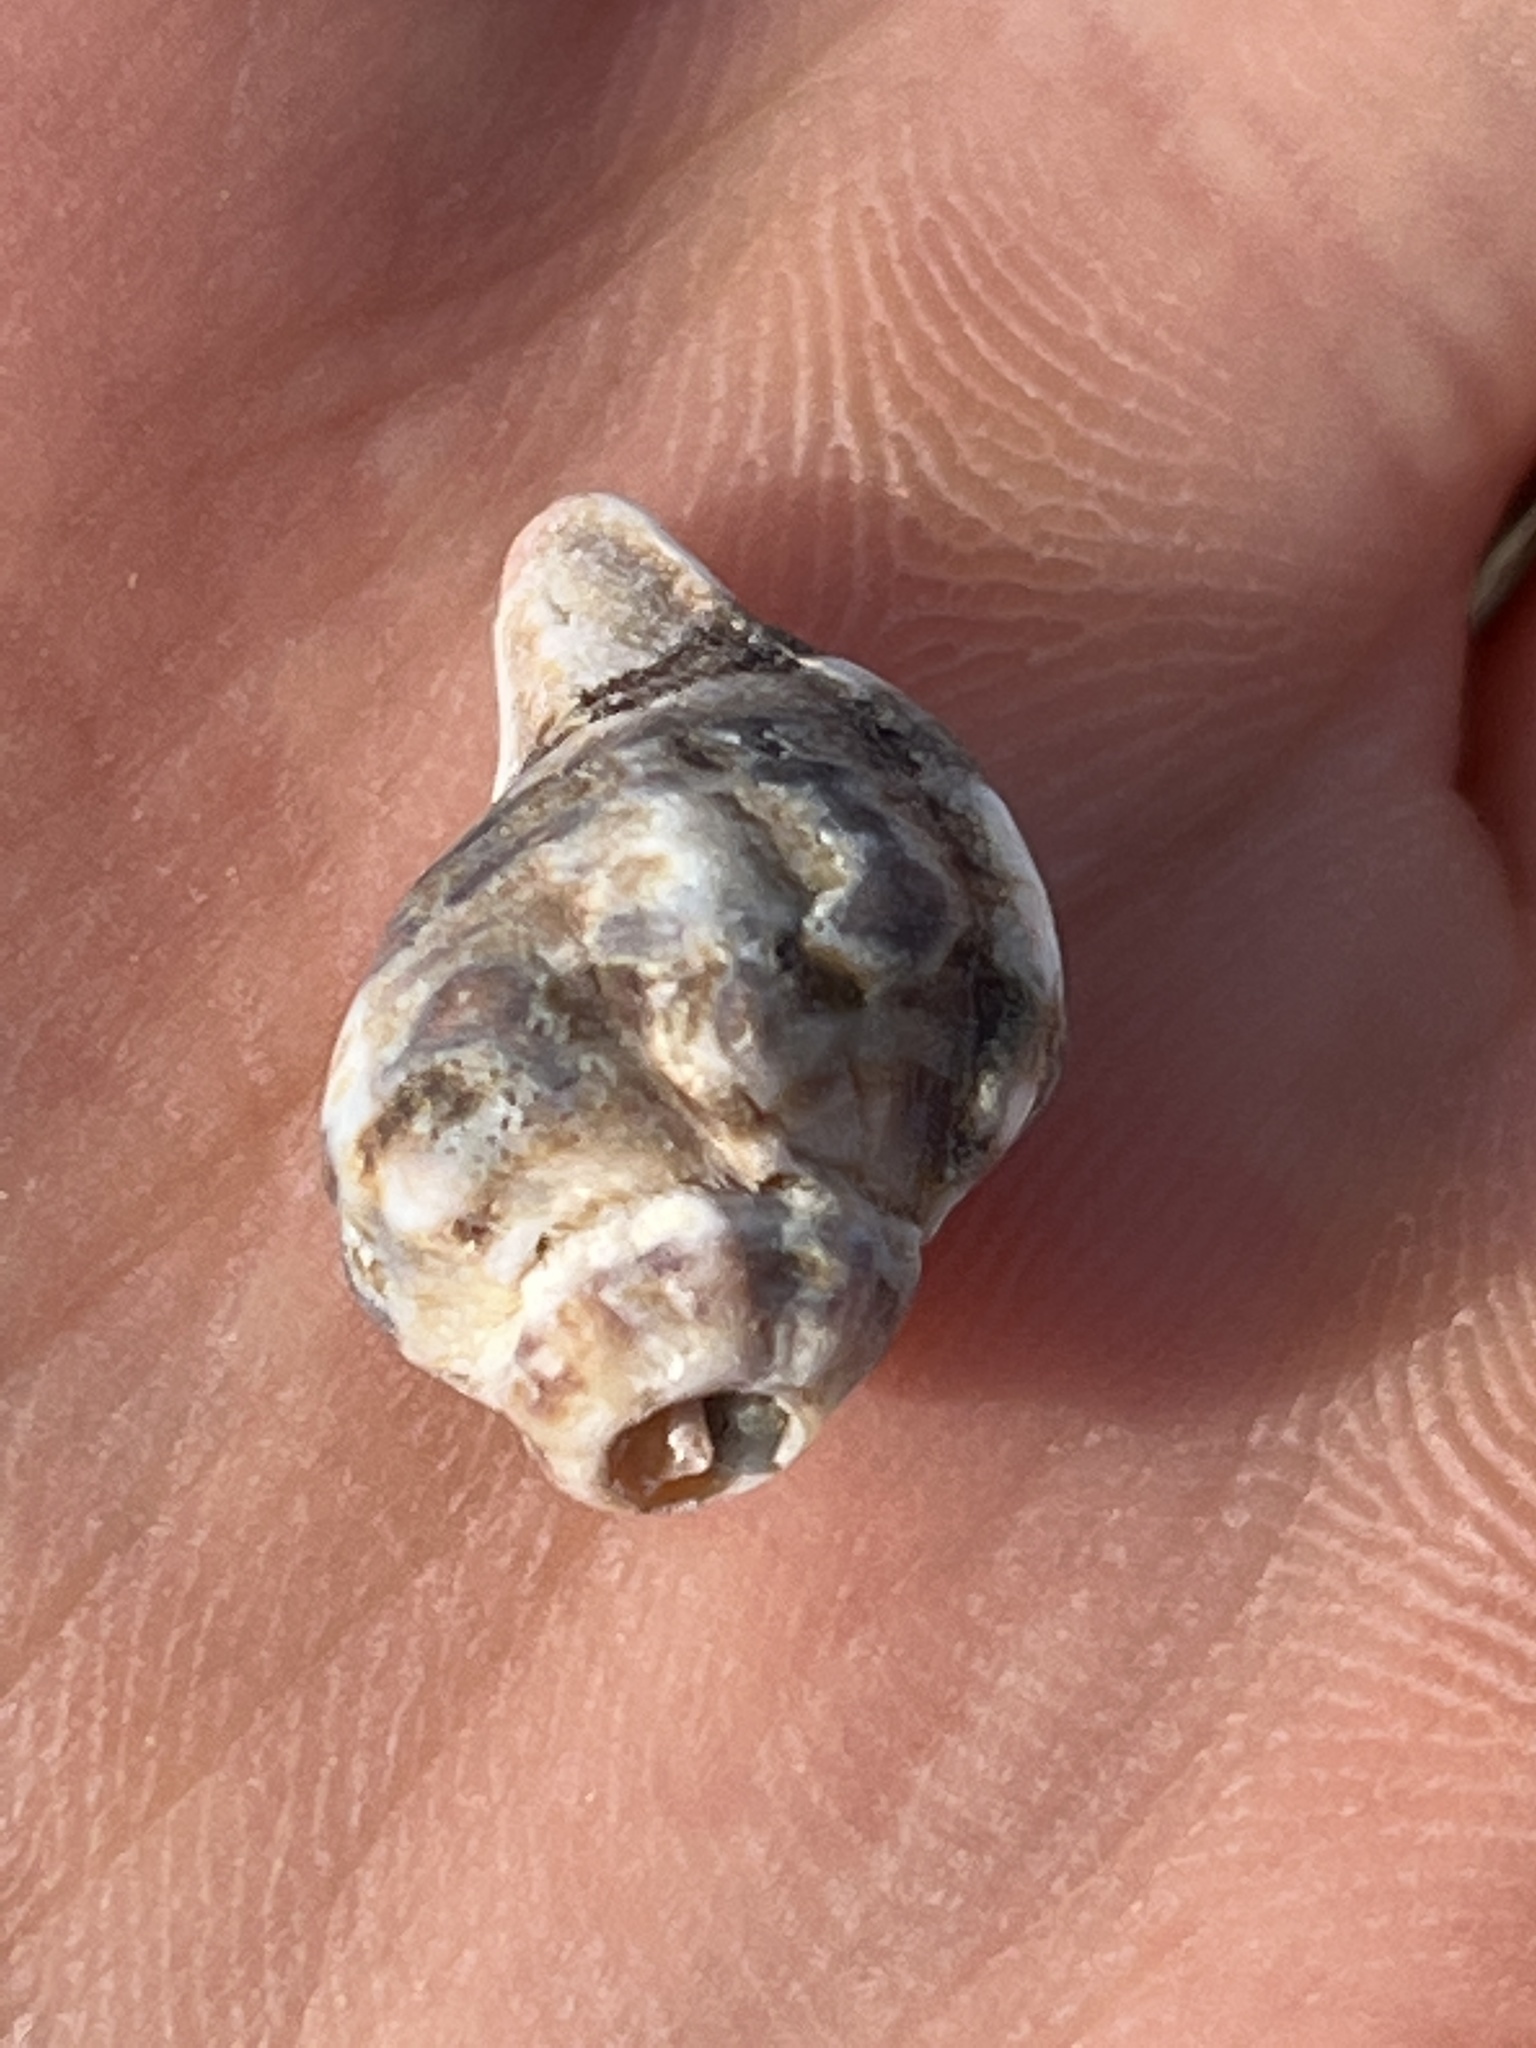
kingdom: Animalia
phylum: Mollusca
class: Gastropoda
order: Neogastropoda
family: Muricidae
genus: Ceratostoma
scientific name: Ceratostoma rorifluum
